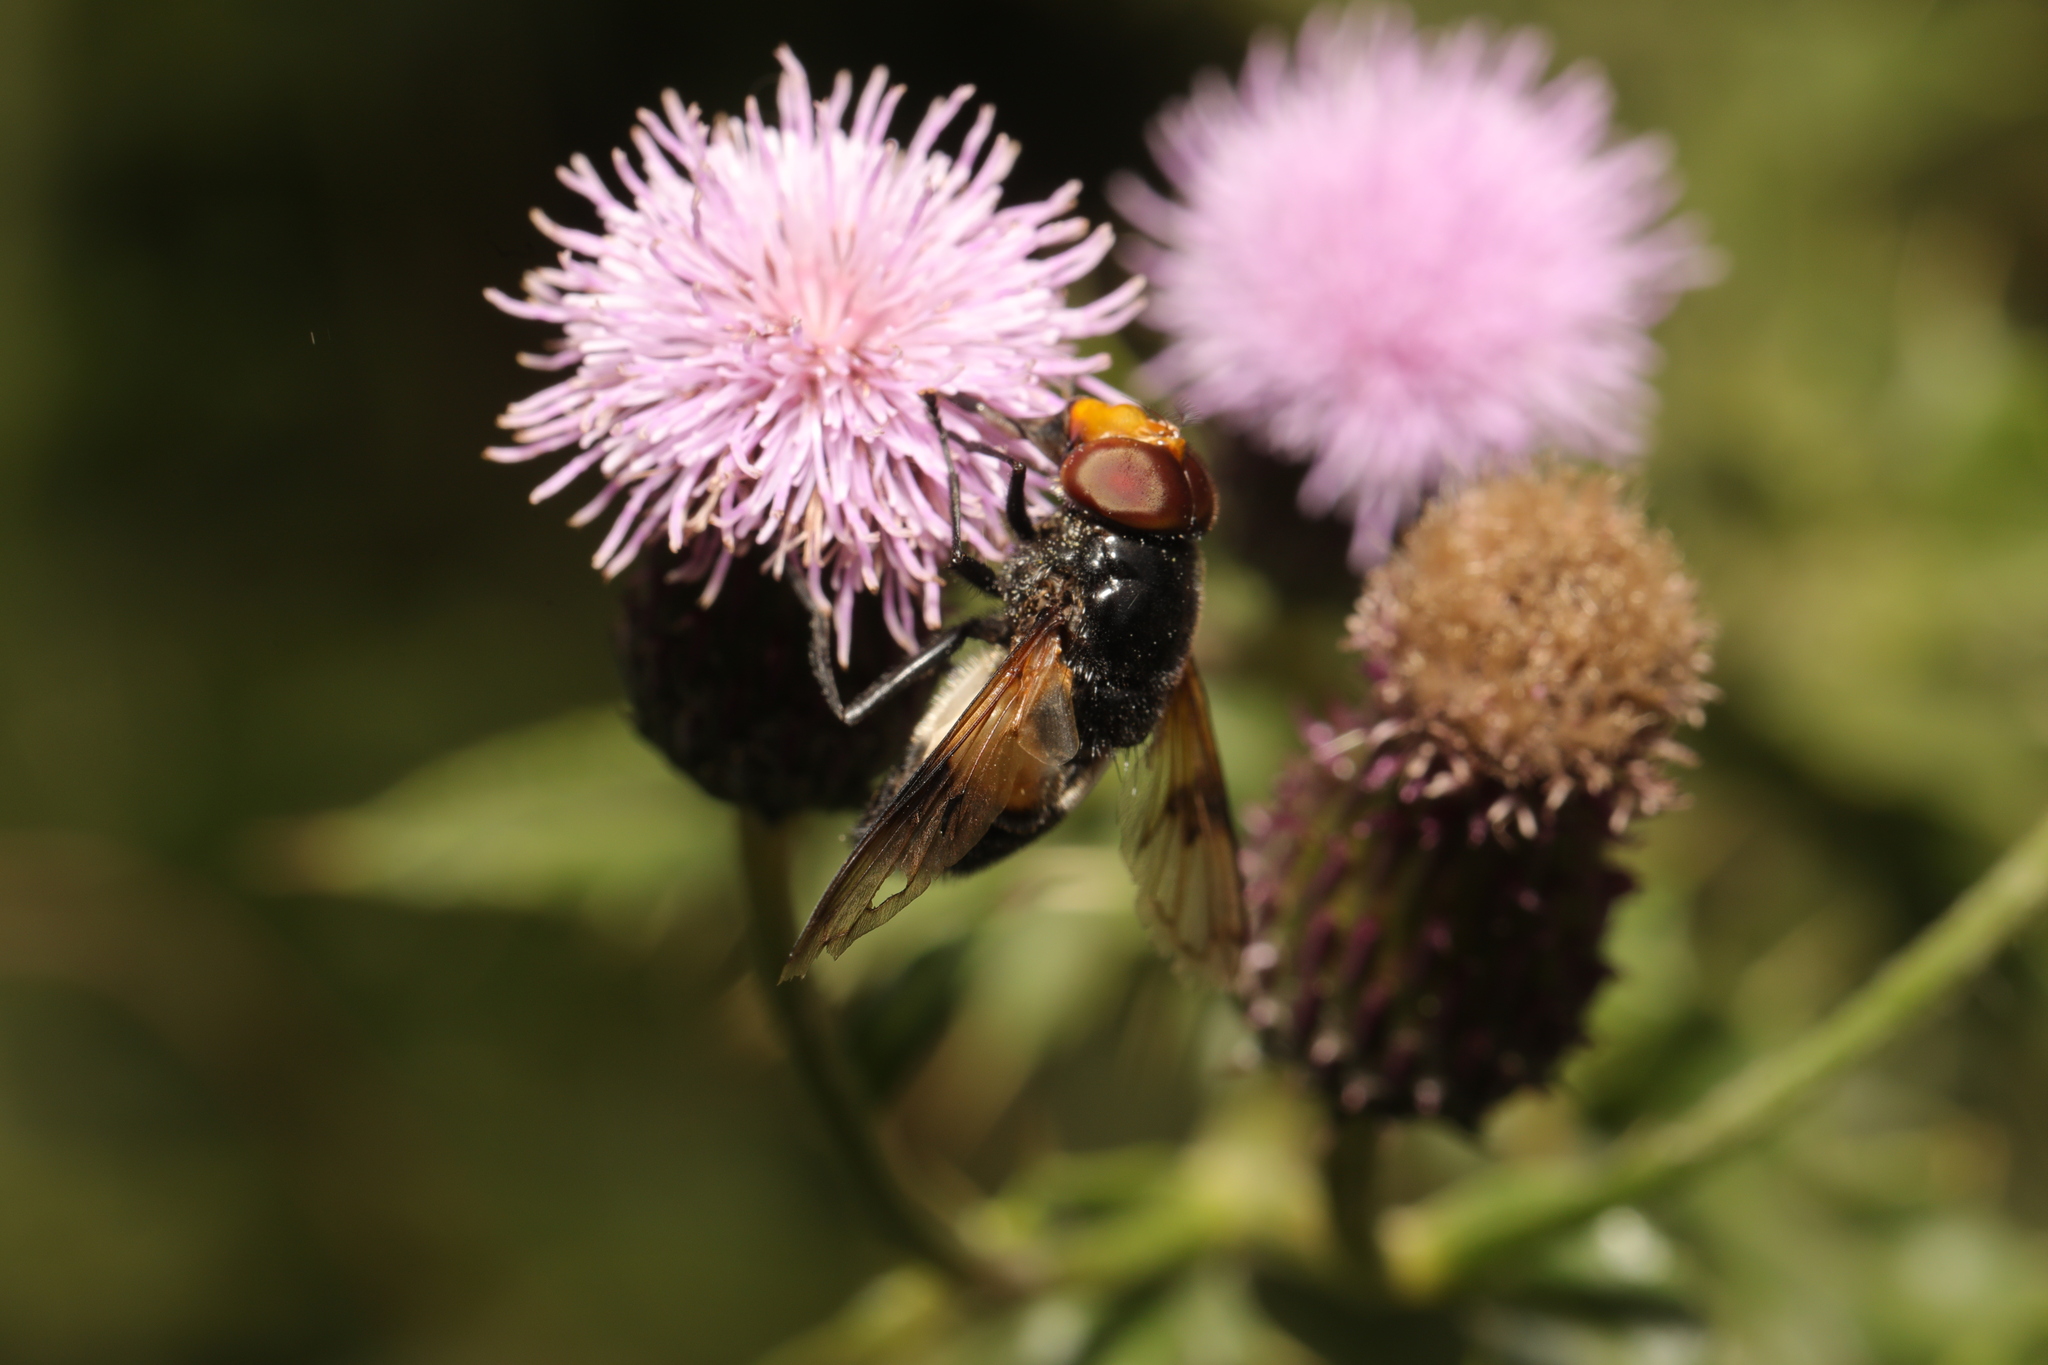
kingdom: Animalia
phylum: Arthropoda
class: Insecta
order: Diptera
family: Syrphidae
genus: Volucella
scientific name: Volucella pellucens
